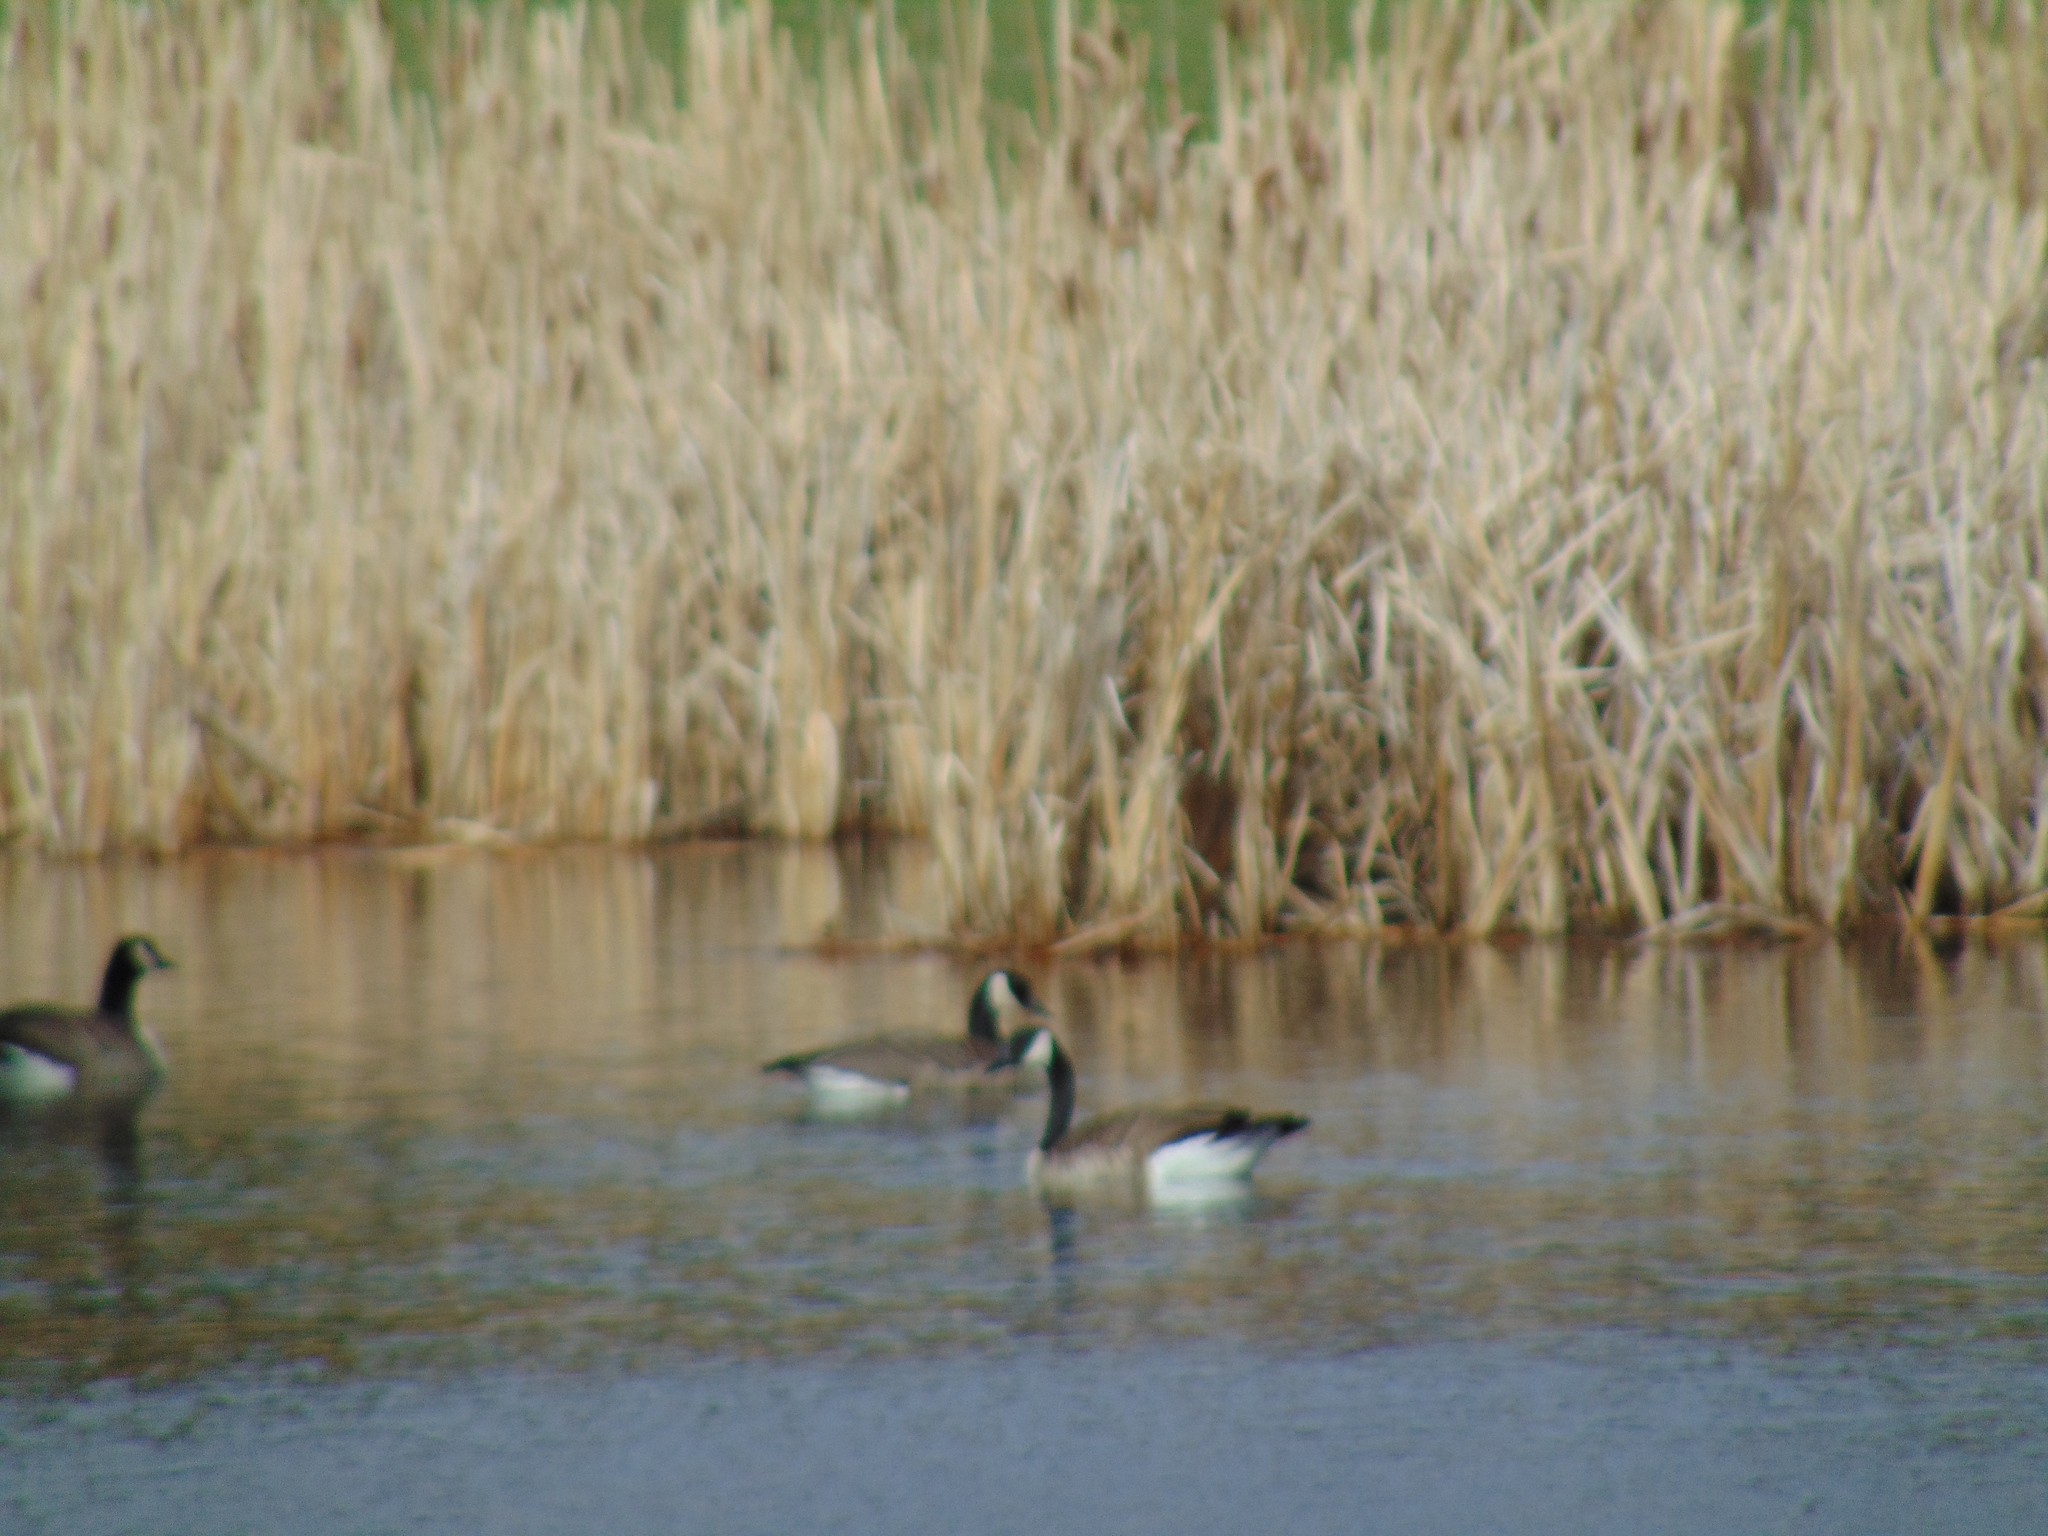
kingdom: Animalia
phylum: Chordata
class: Aves
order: Anseriformes
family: Anatidae
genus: Branta
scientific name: Branta canadensis
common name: Canada goose
